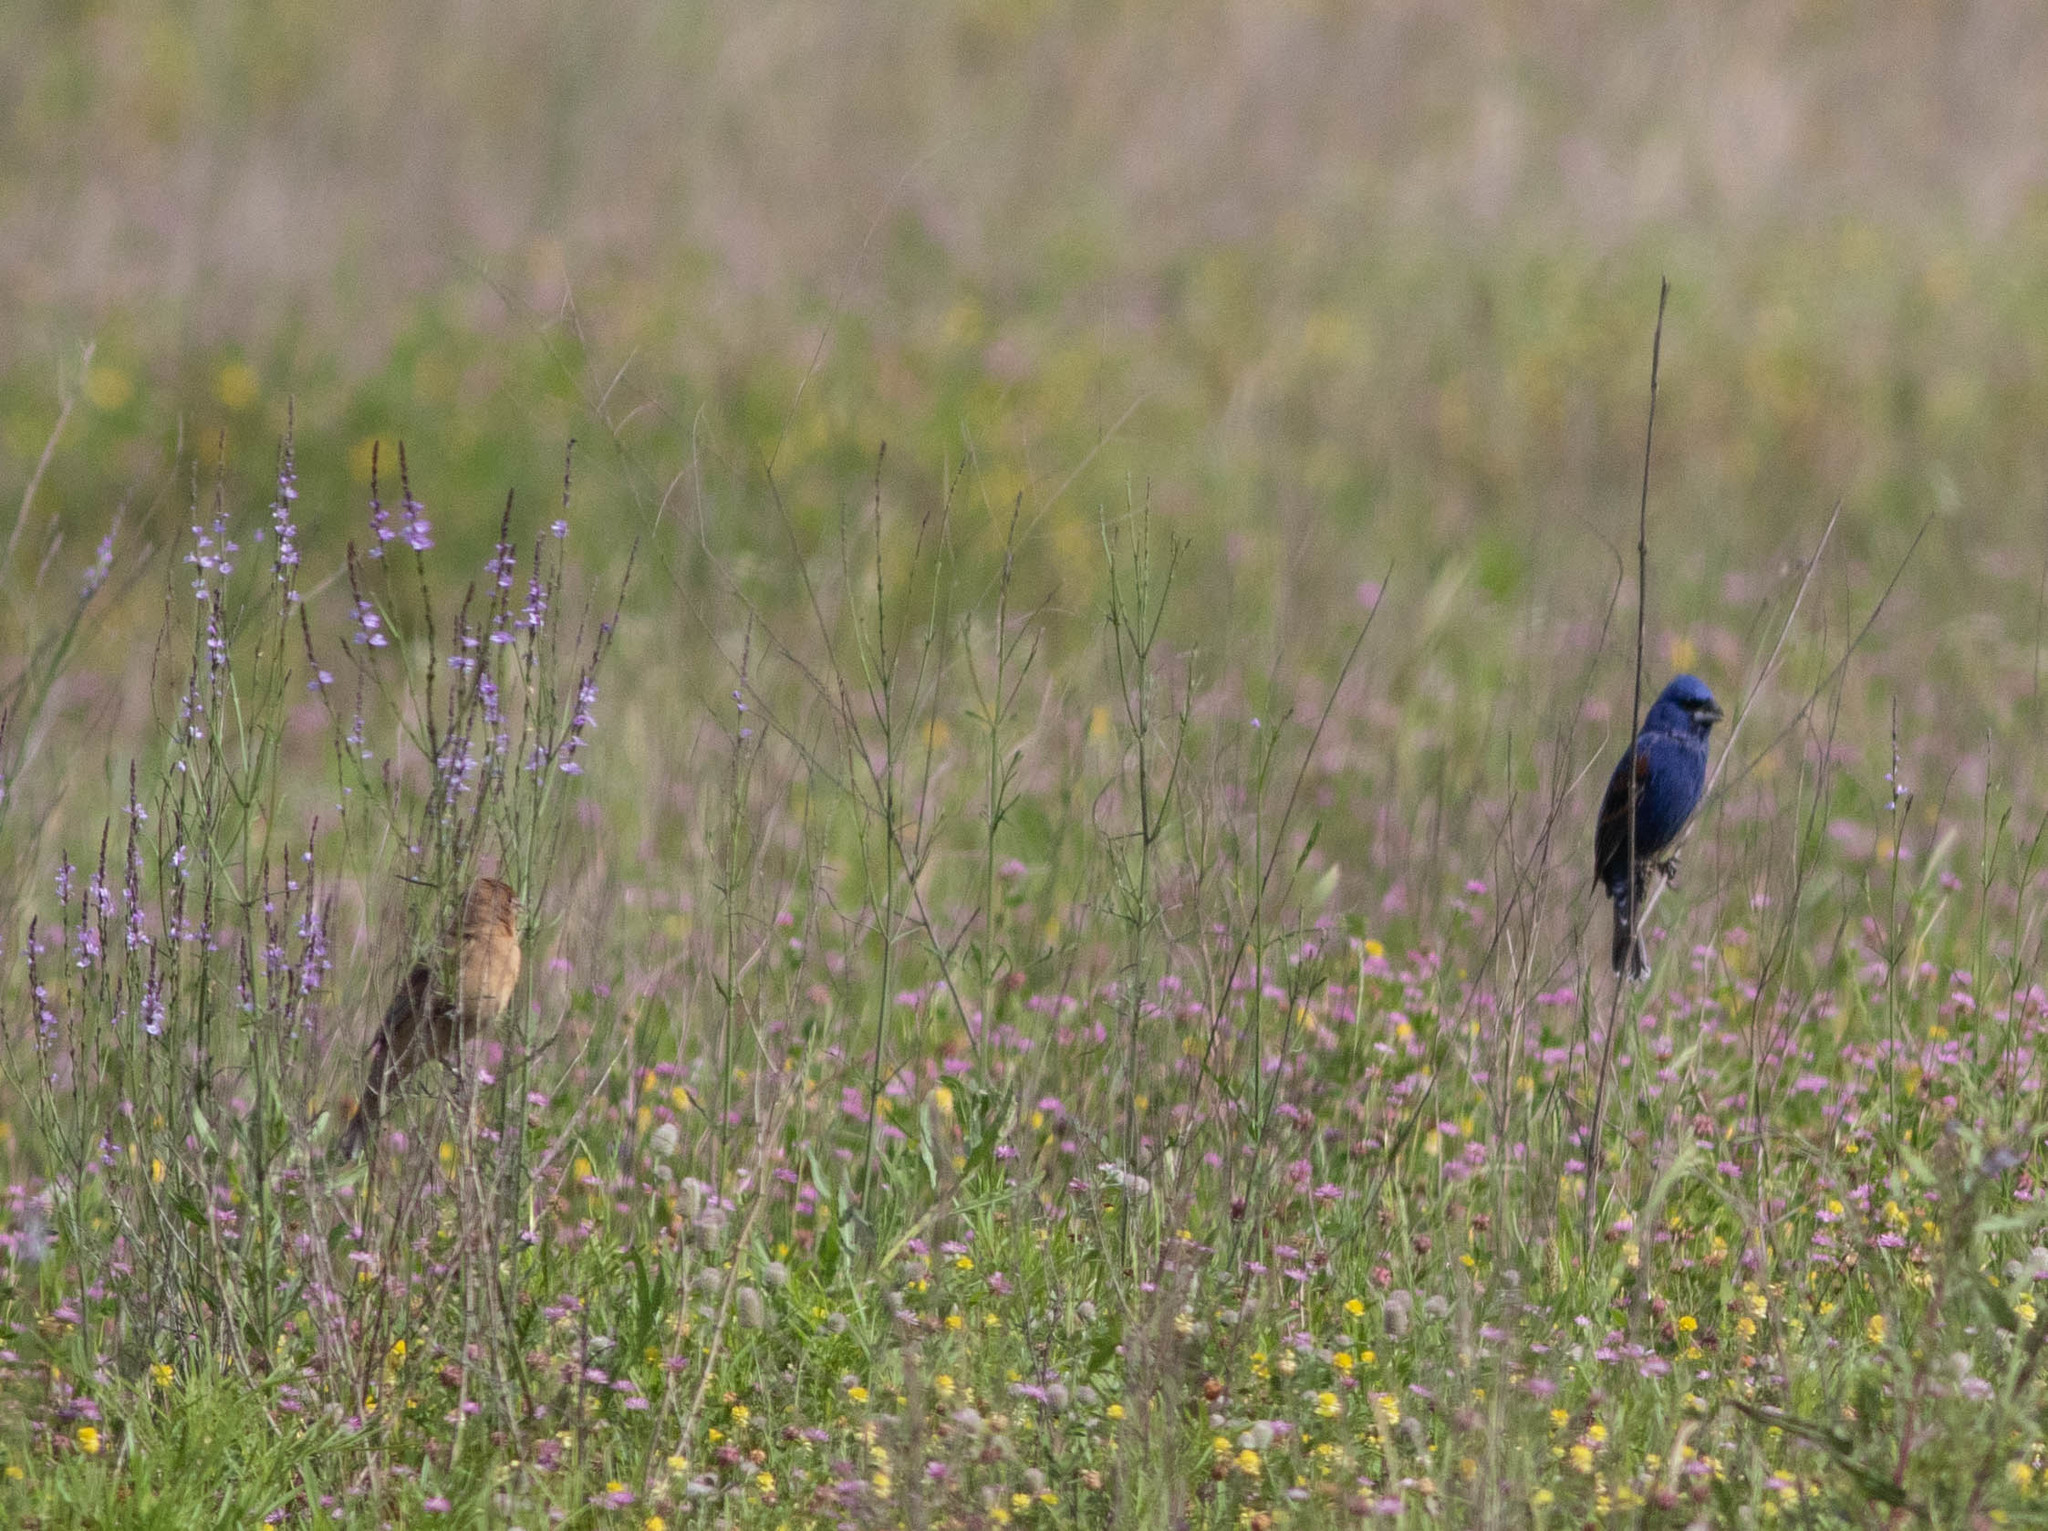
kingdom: Animalia
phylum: Chordata
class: Aves
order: Passeriformes
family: Cardinalidae
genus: Passerina
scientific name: Passerina caerulea
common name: Blue grosbeak
